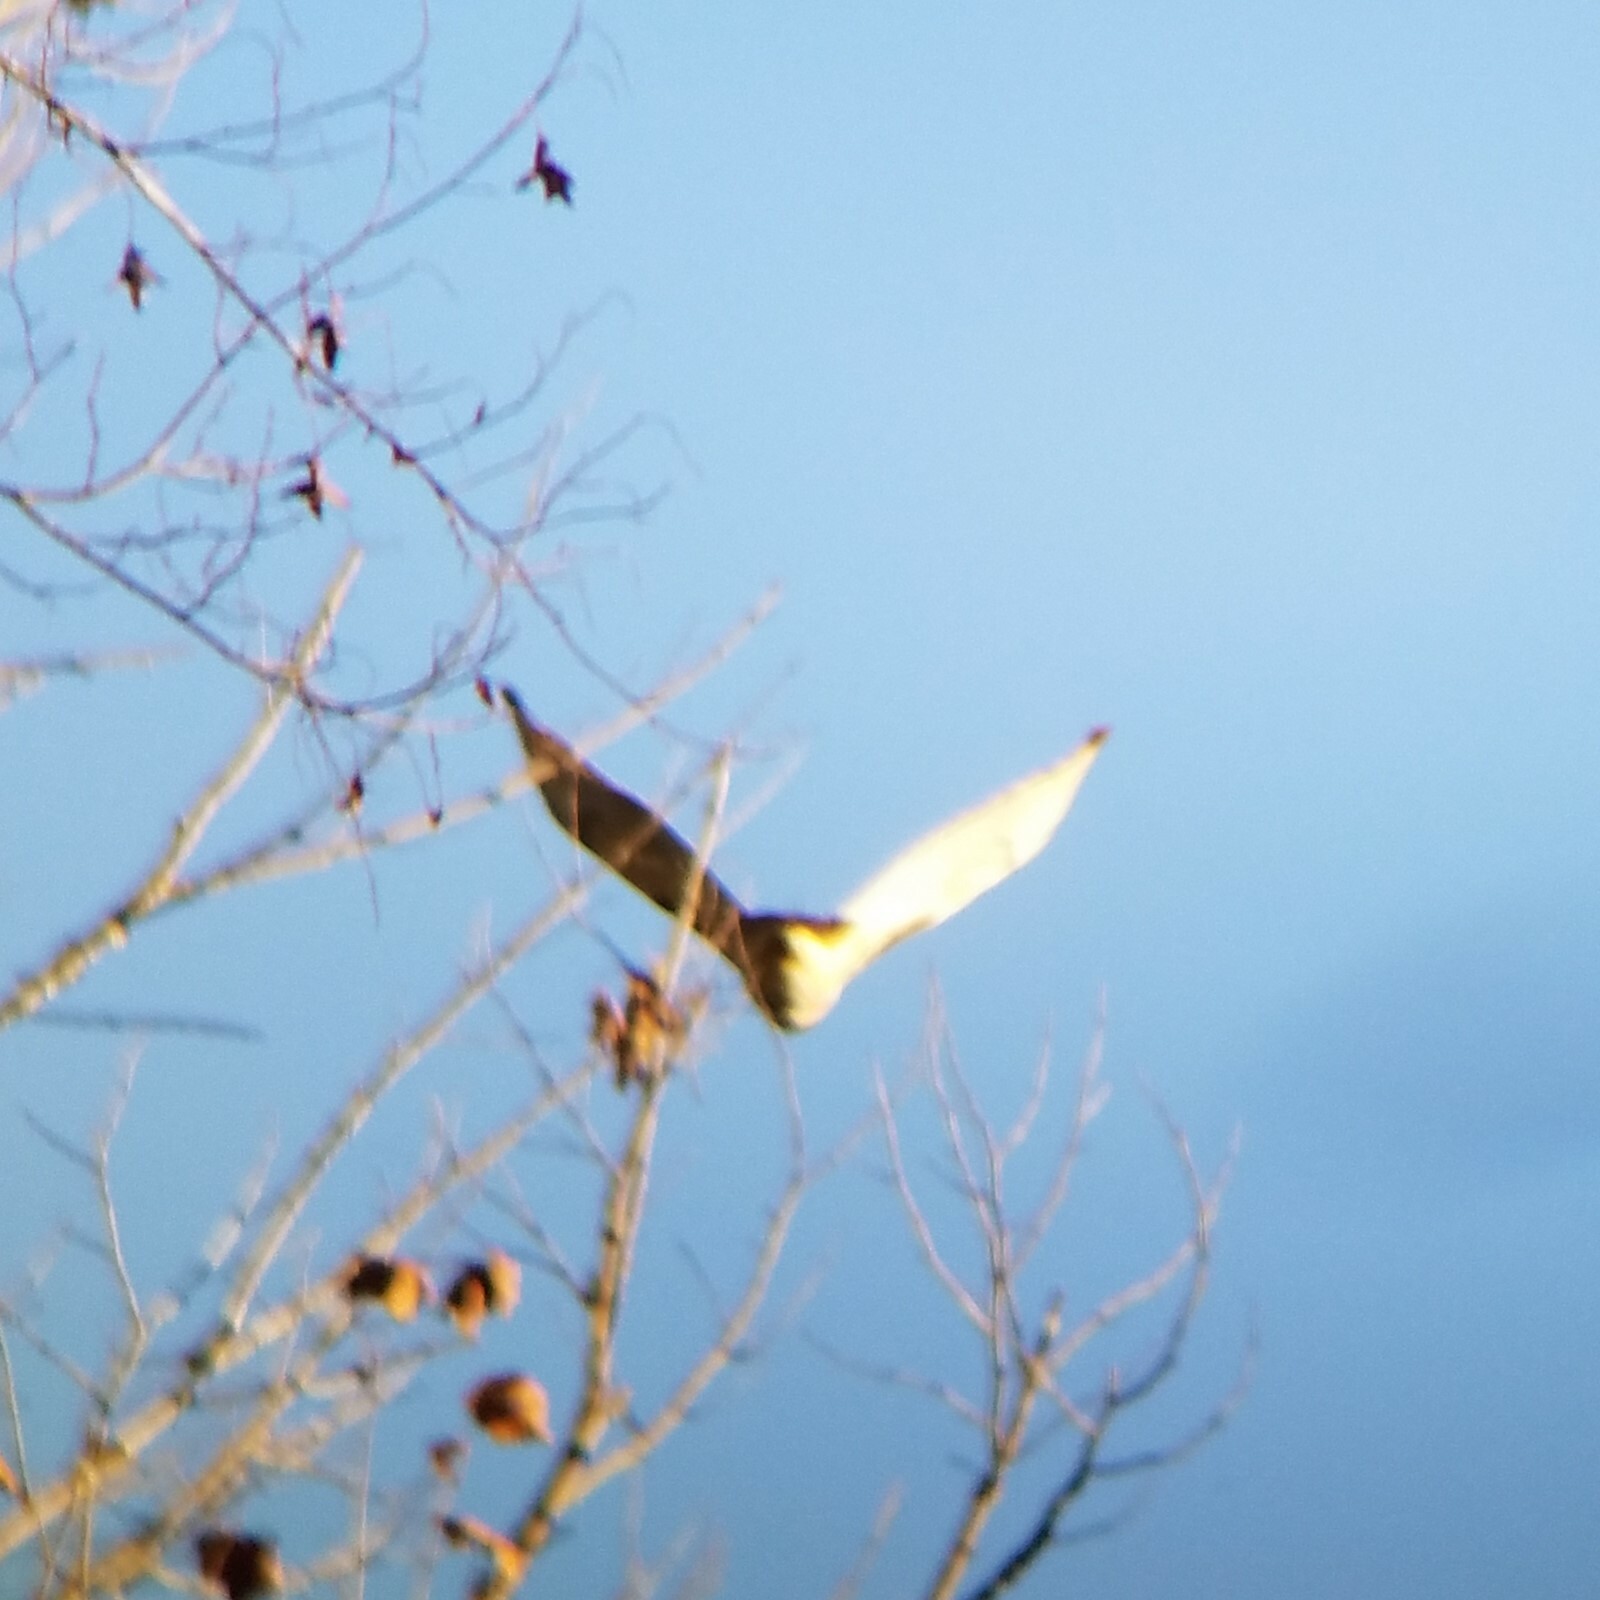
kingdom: Animalia
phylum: Chordata
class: Aves
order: Accipitriformes
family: Accipitridae
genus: Buteo
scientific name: Buteo jamaicensis
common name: Red-tailed hawk
